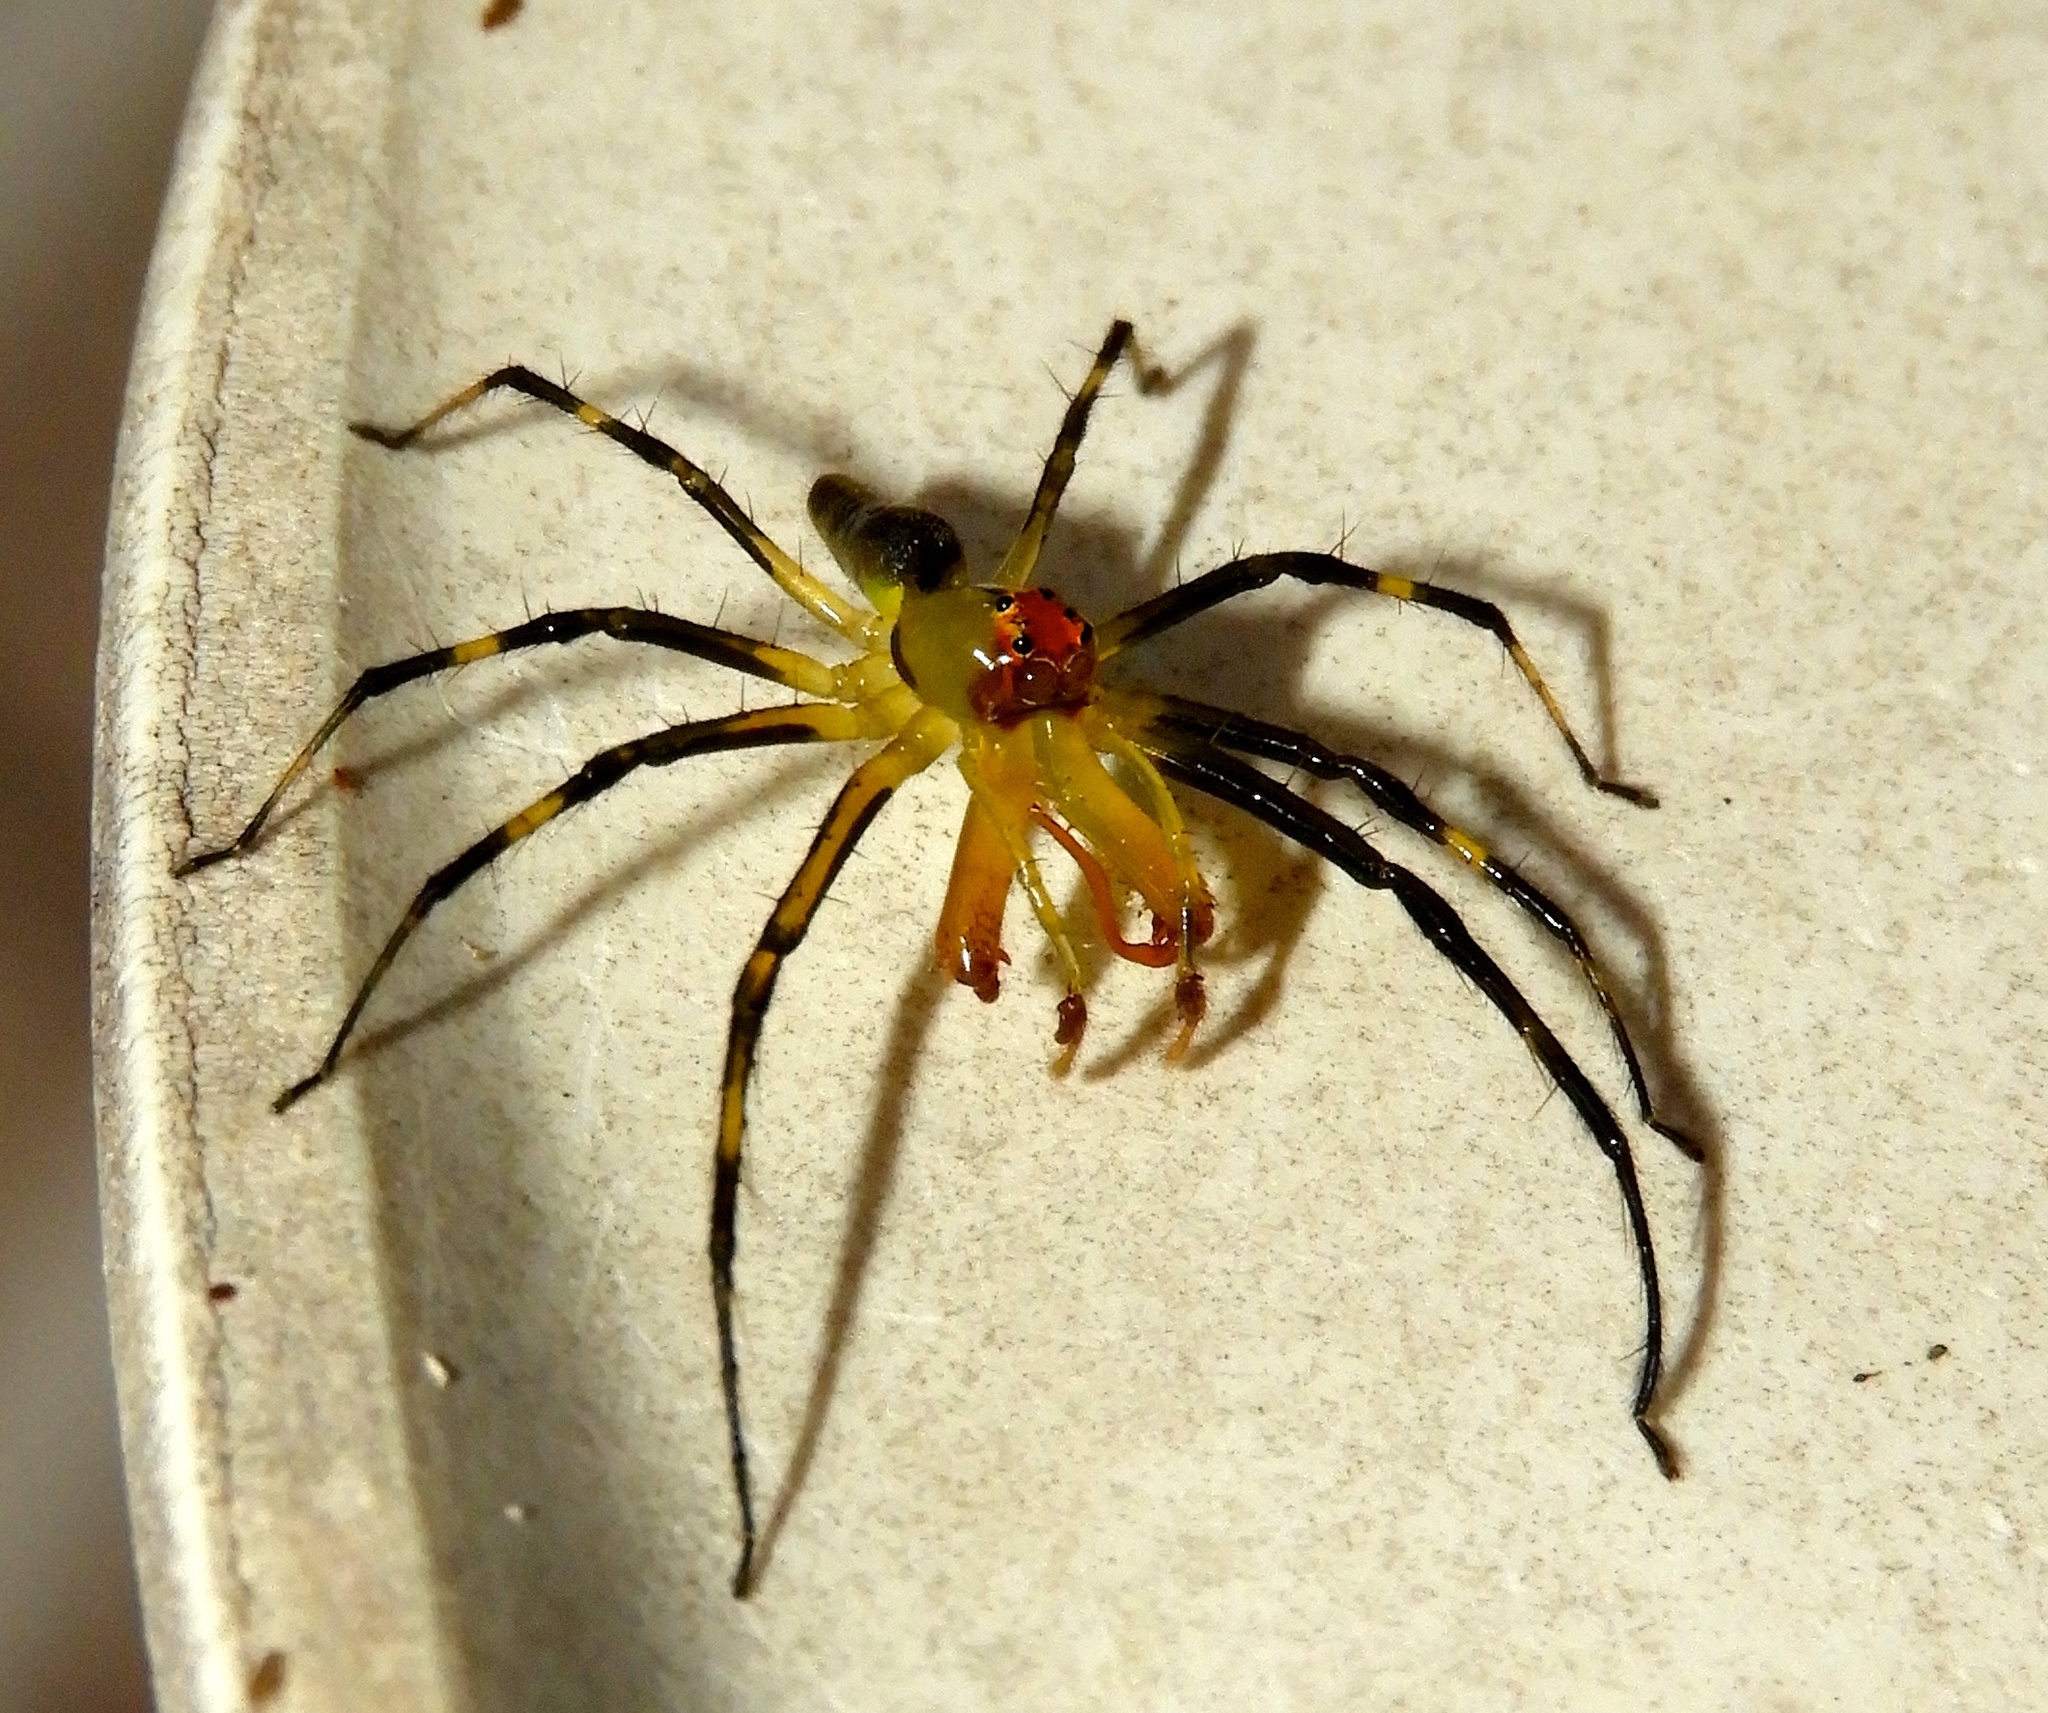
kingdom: Animalia
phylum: Arthropoda
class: Arachnida
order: Araneae
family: Salticidae
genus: Lyssomanes
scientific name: Lyssomanes
